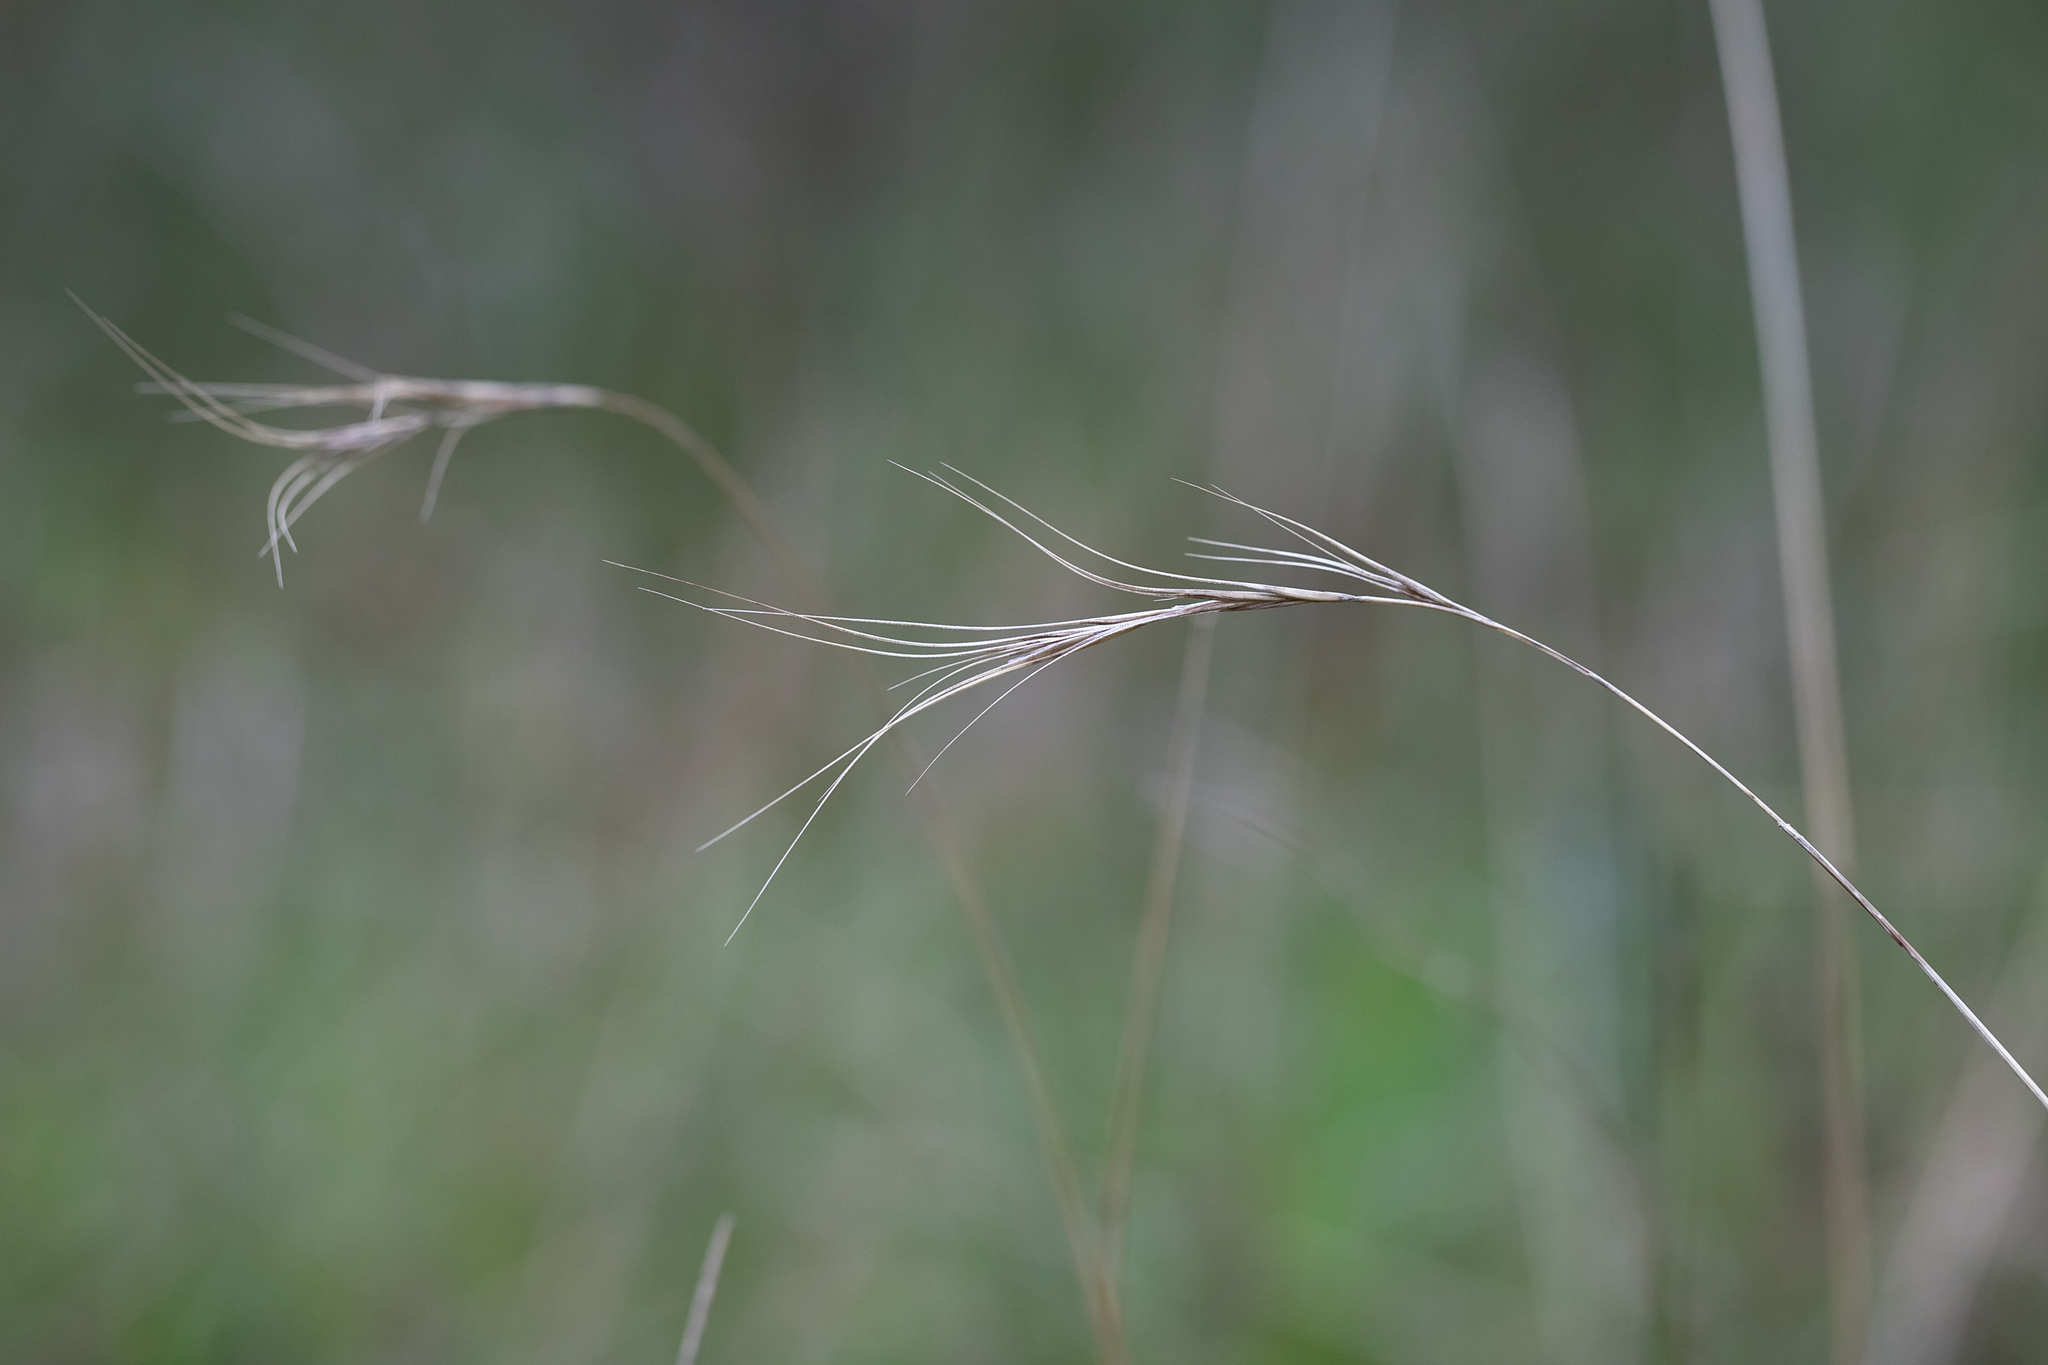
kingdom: Plantae
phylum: Tracheophyta
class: Liliopsida
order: Poales
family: Poaceae
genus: Anthosachne
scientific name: Anthosachne scabra
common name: Common wheatgrass
